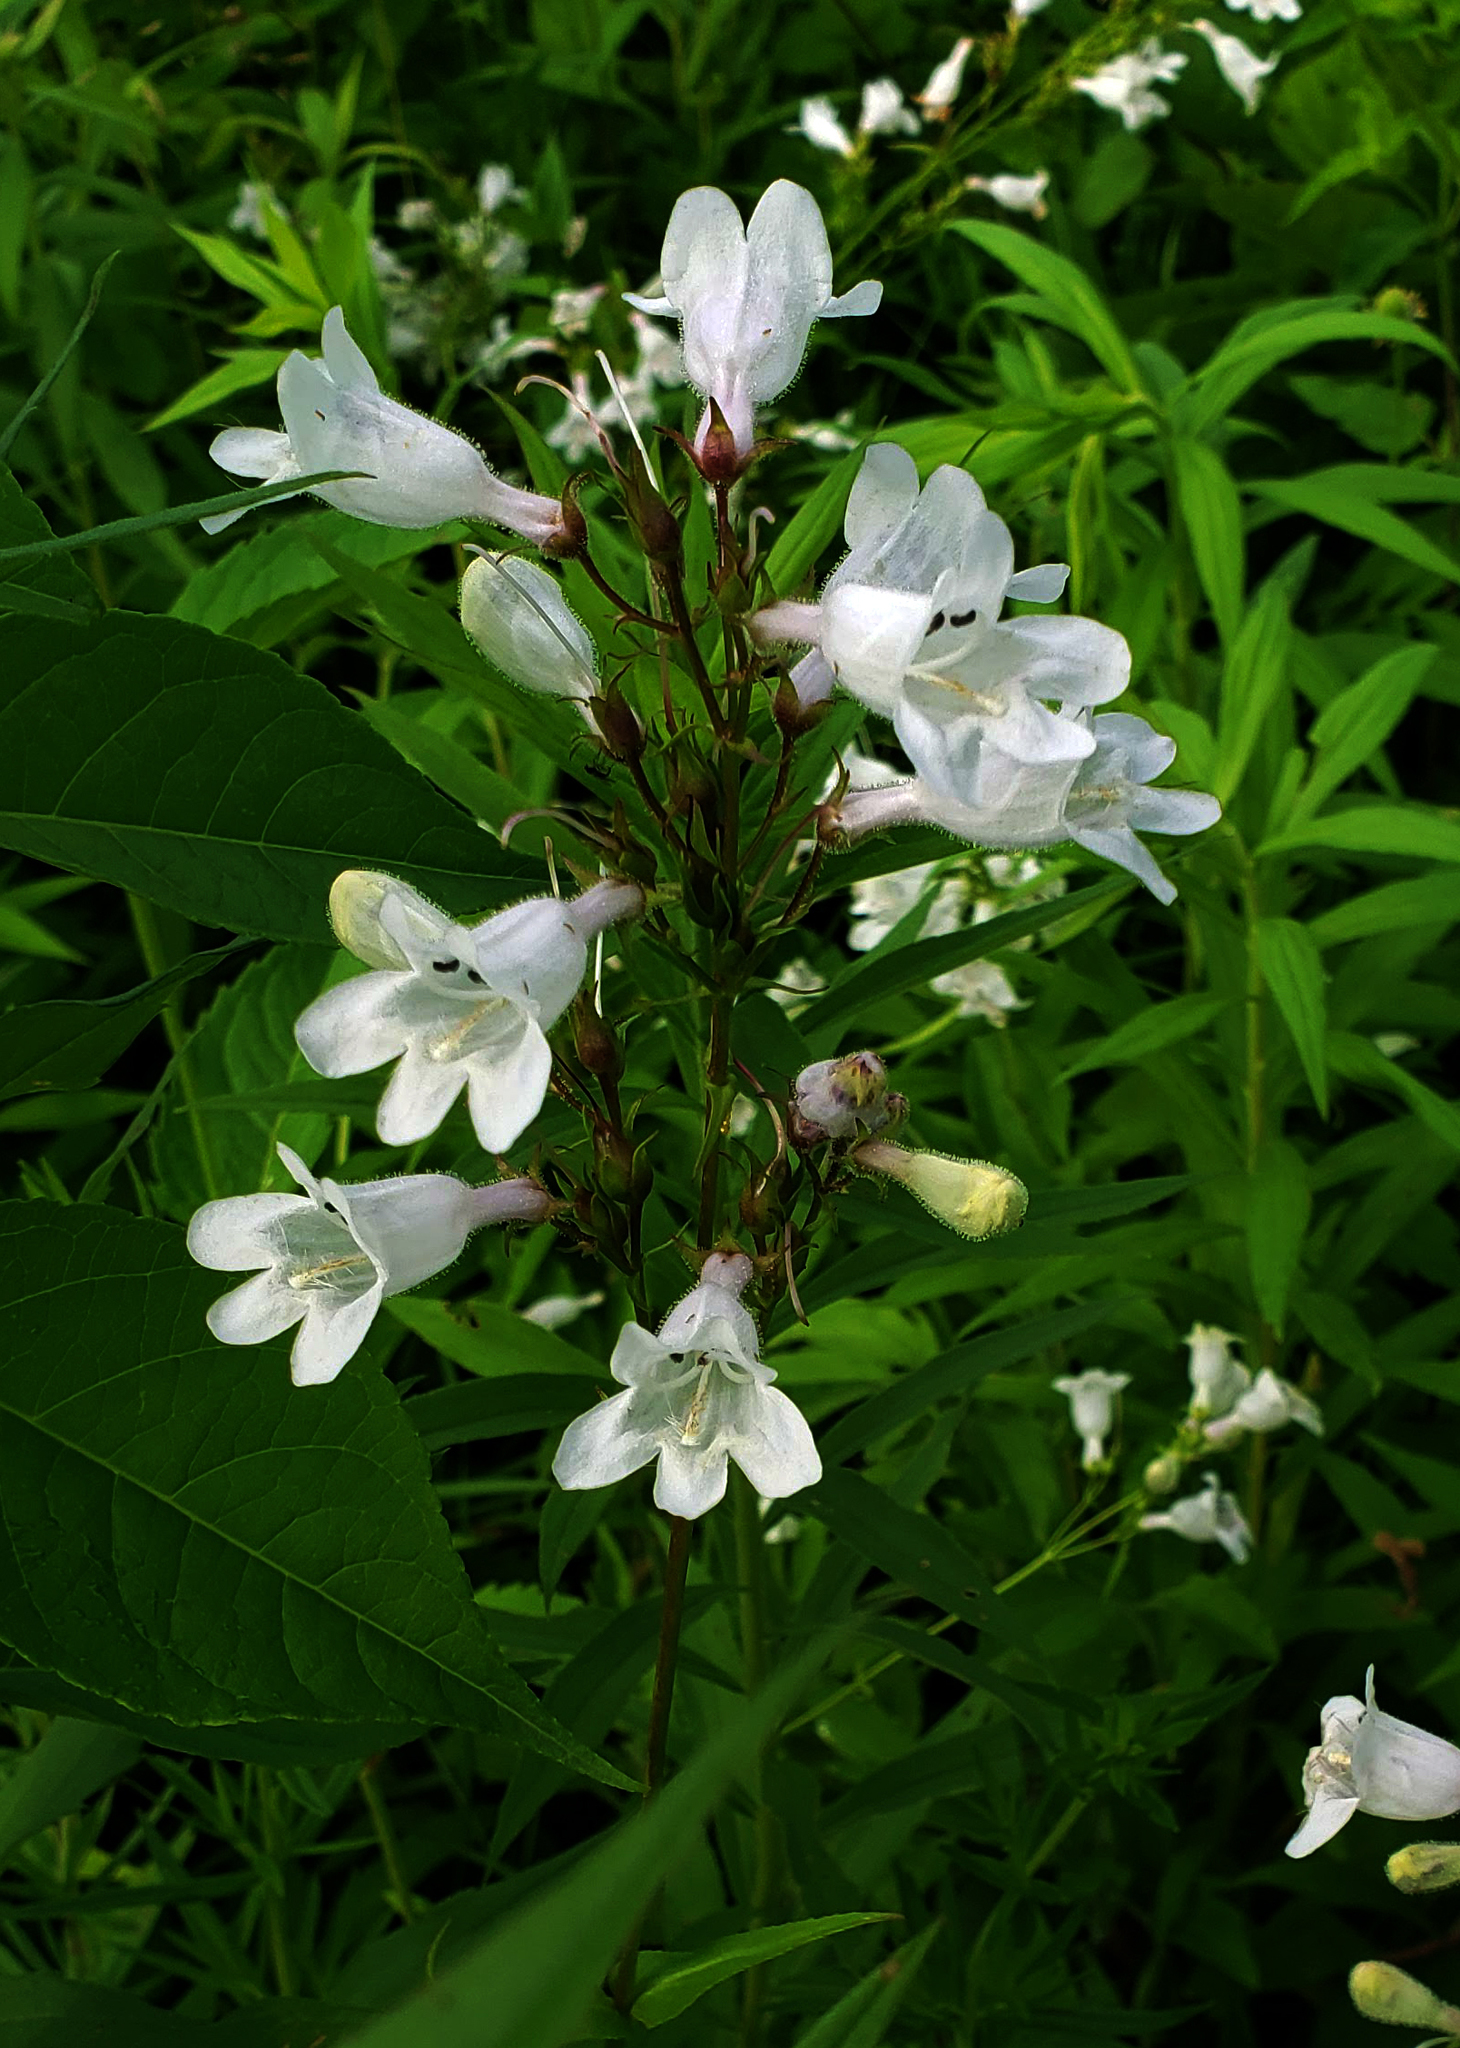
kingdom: Plantae
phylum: Tracheophyta
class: Magnoliopsida
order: Lamiales
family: Plantaginaceae
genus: Penstemon
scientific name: Penstemon digitalis
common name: Foxglove beardtongue
